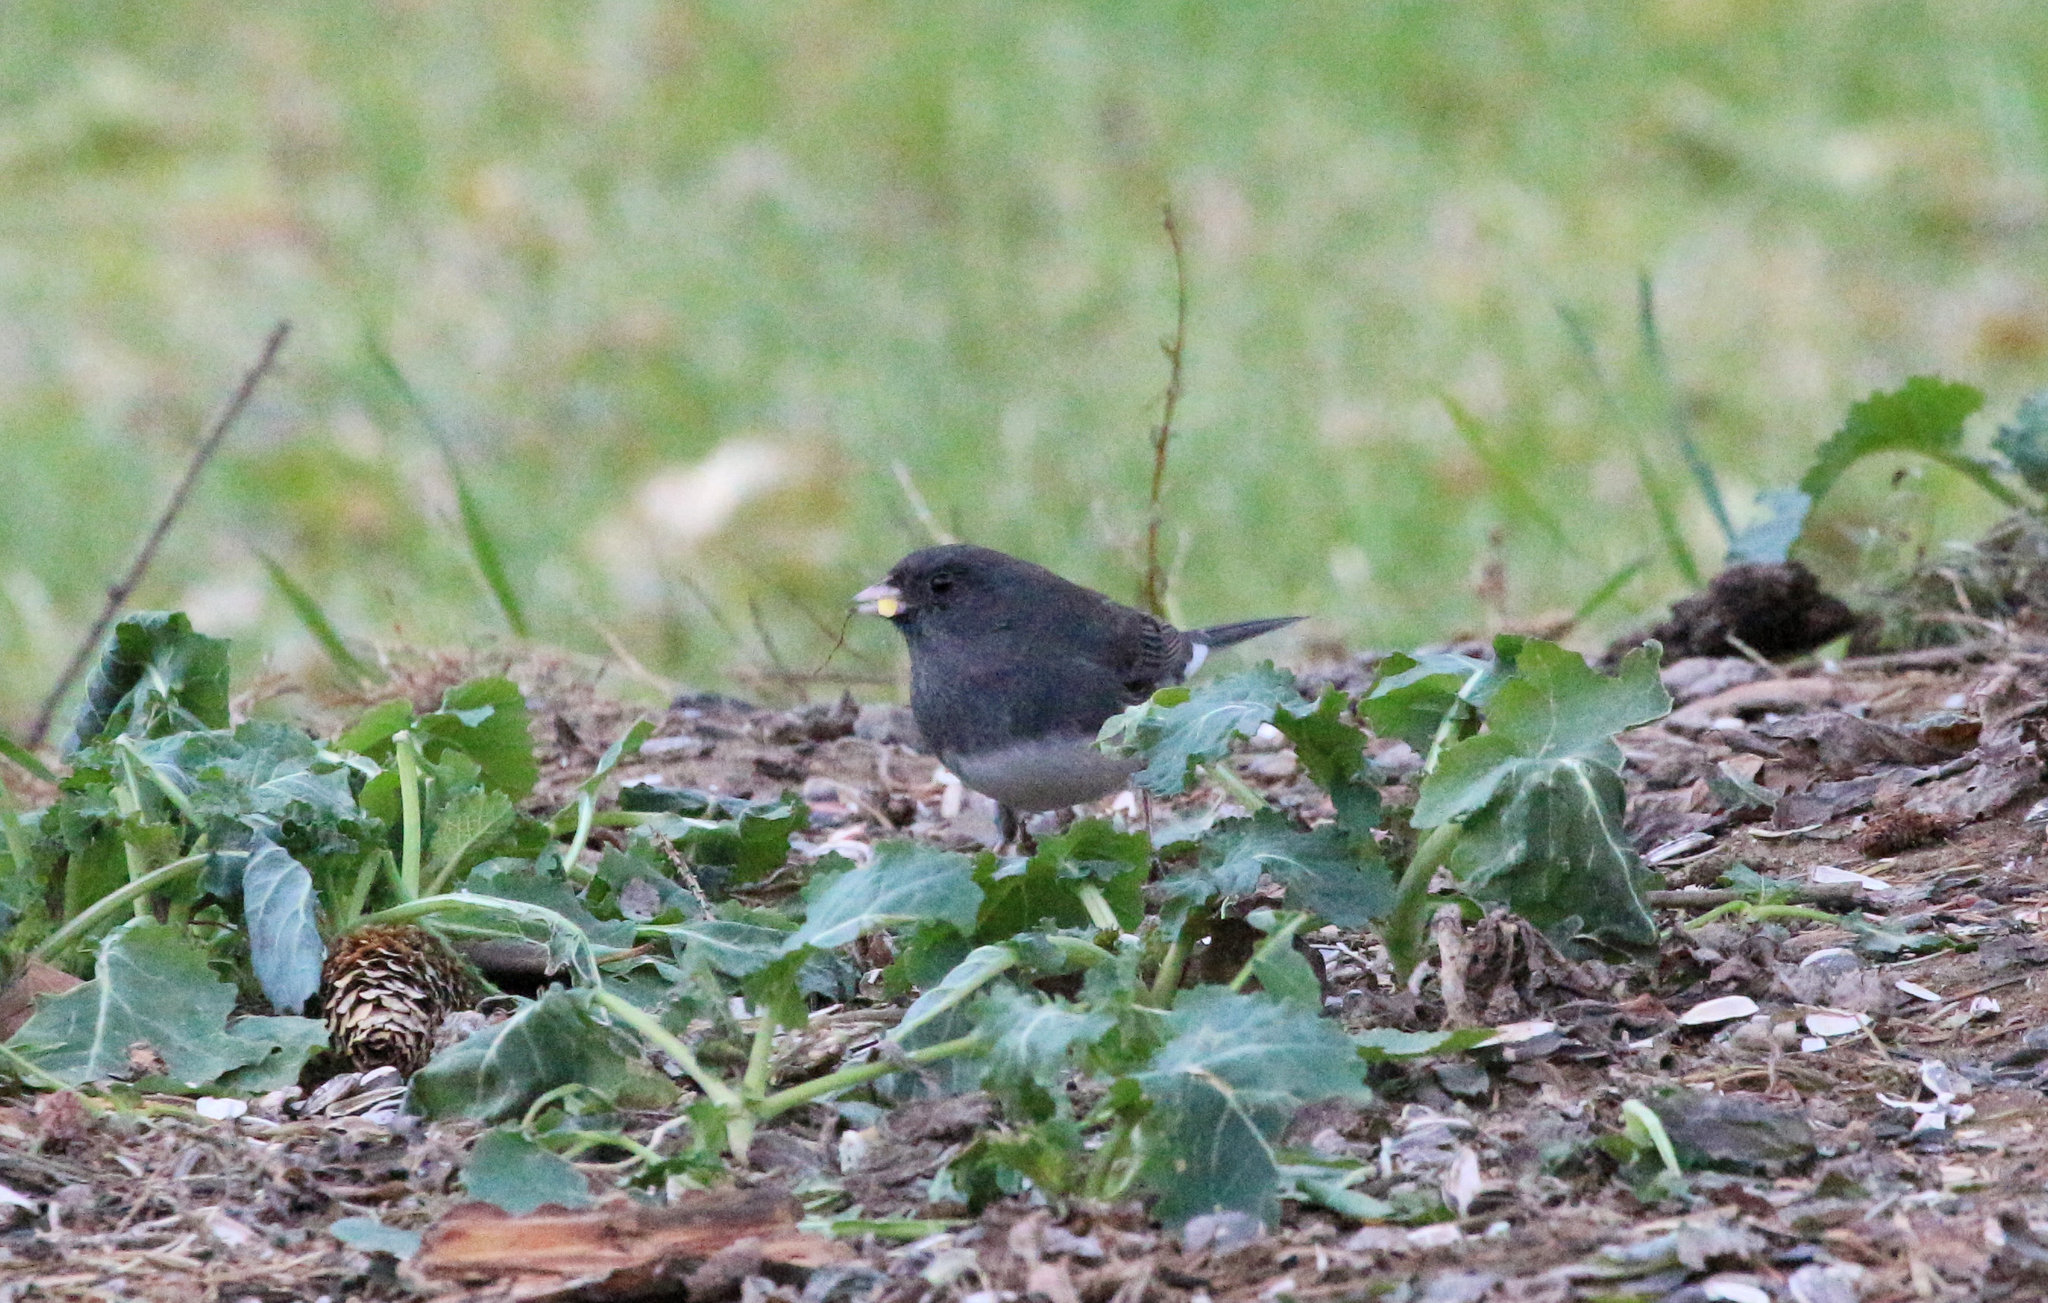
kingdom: Animalia
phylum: Chordata
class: Aves
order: Passeriformes
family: Passerellidae
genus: Junco
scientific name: Junco hyemalis
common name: Dark-eyed junco
